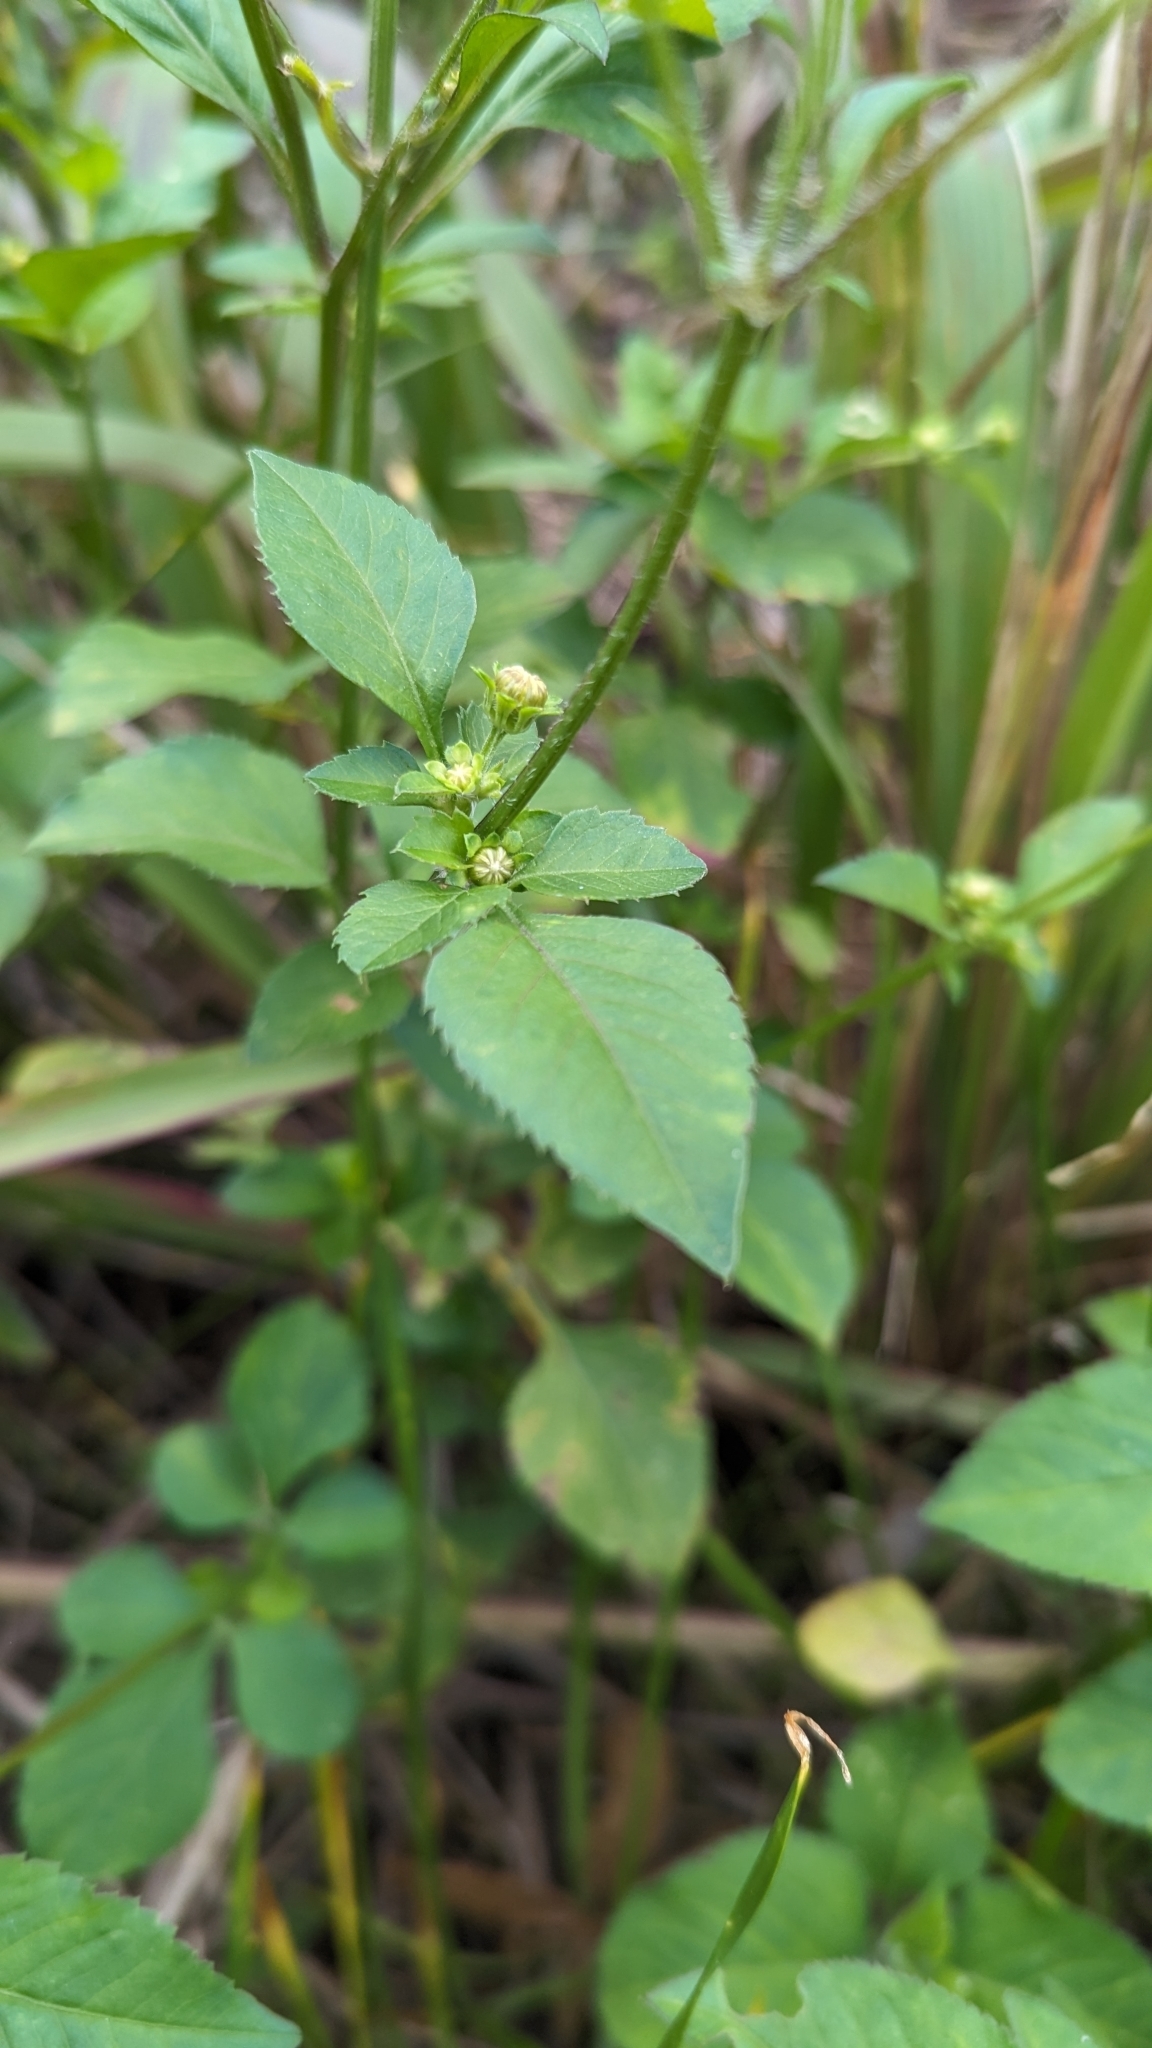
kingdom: Plantae
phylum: Tracheophyta
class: Magnoliopsida
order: Asterales
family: Asteraceae
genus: Bidens
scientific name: Bidens alba
